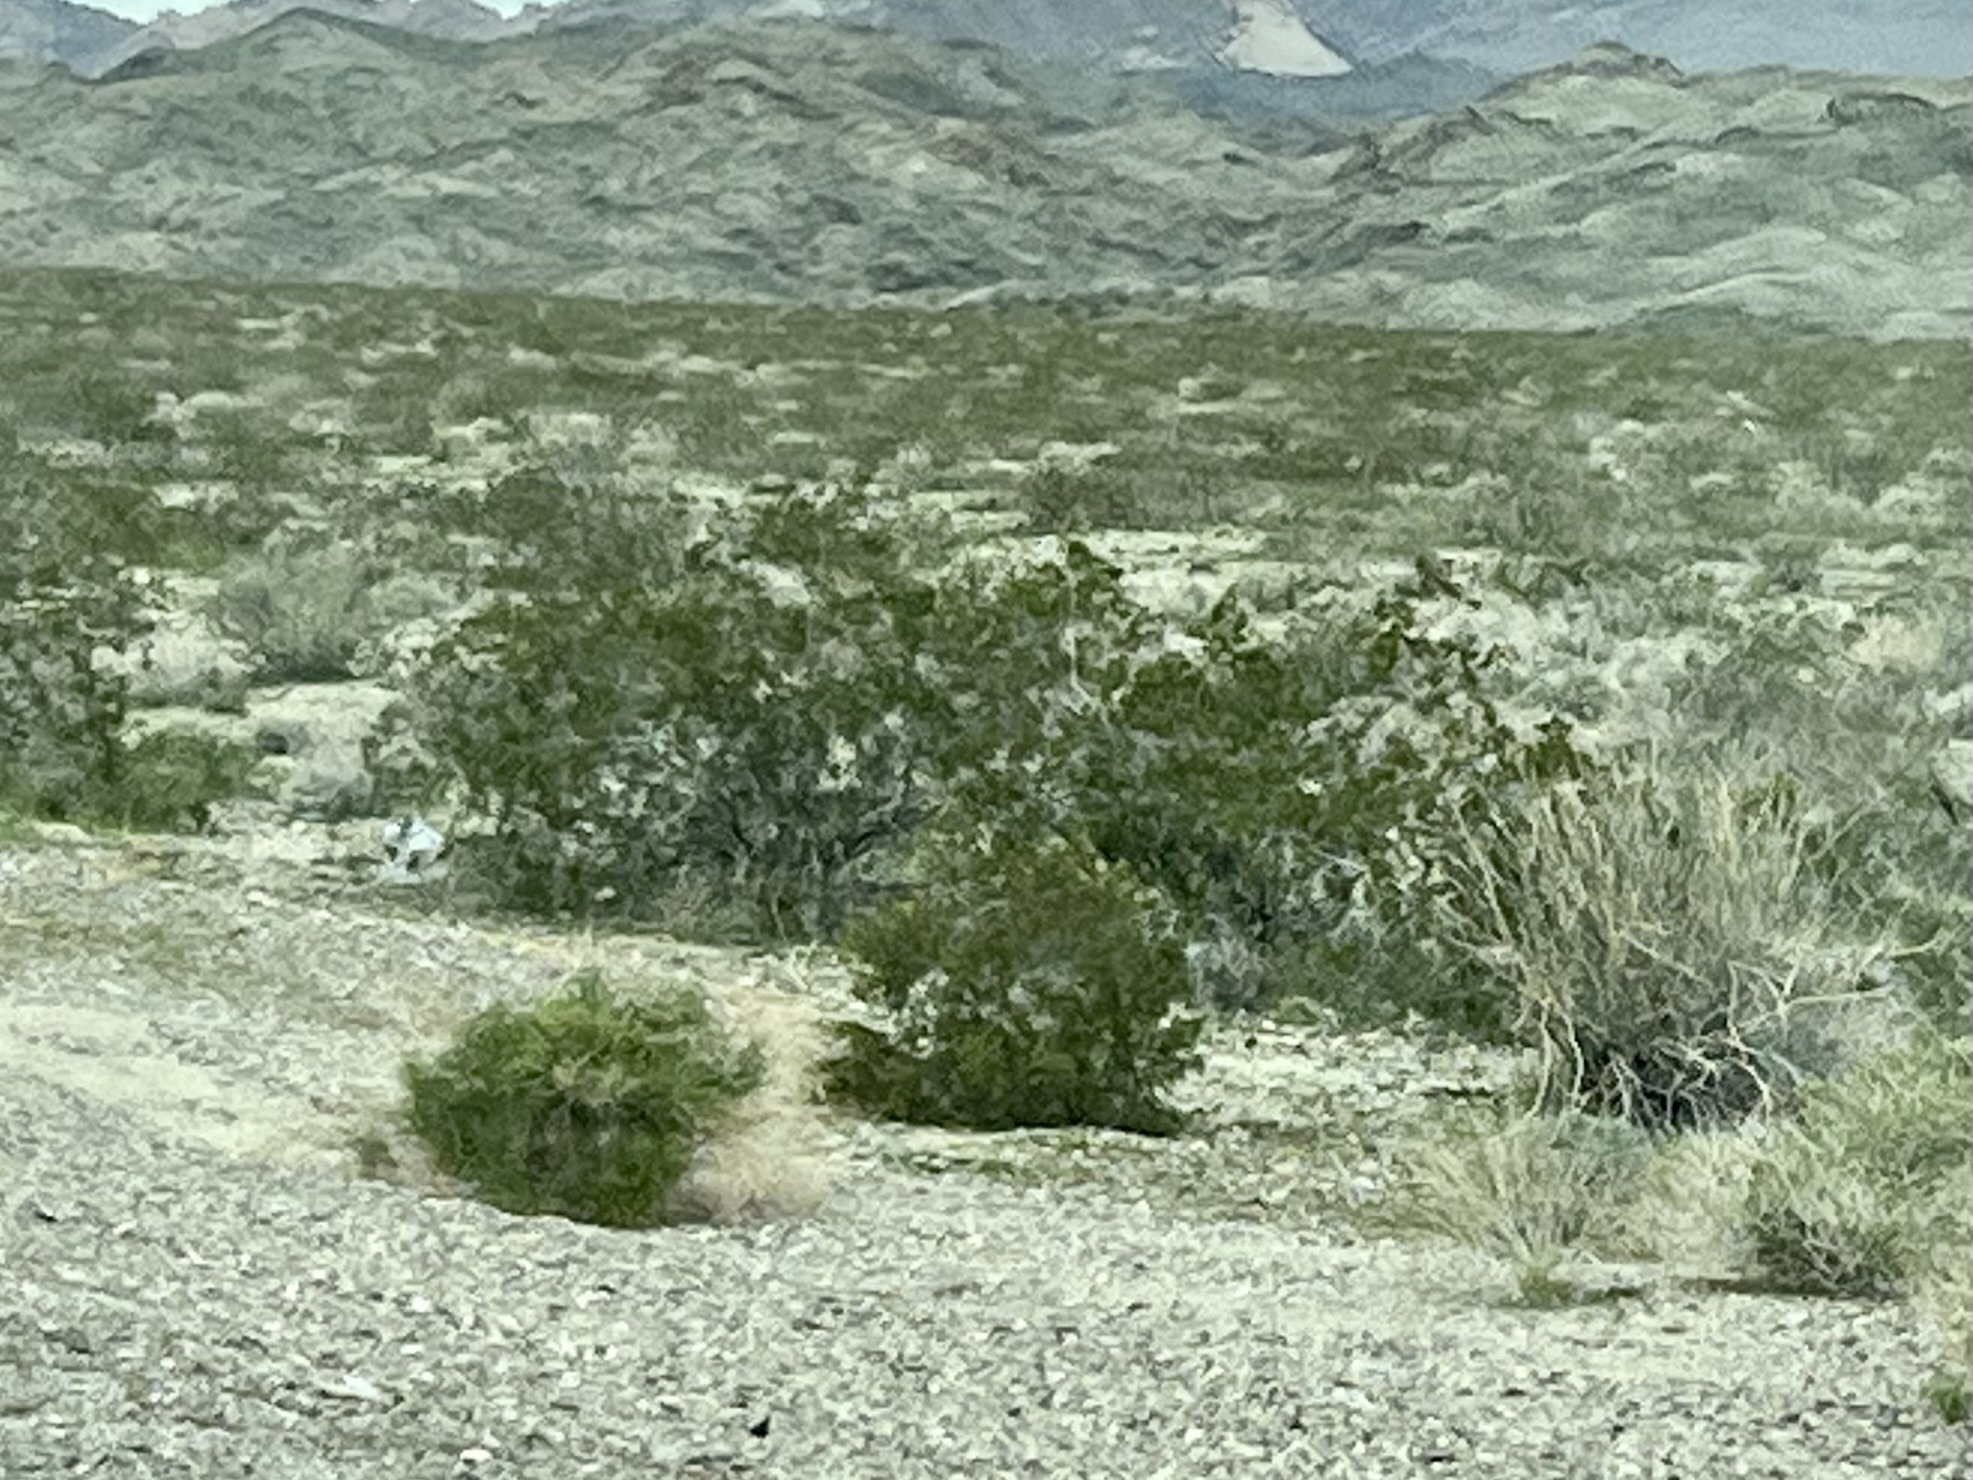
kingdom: Plantae
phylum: Tracheophyta
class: Magnoliopsida
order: Zygophyllales
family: Zygophyllaceae
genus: Larrea
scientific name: Larrea tridentata
